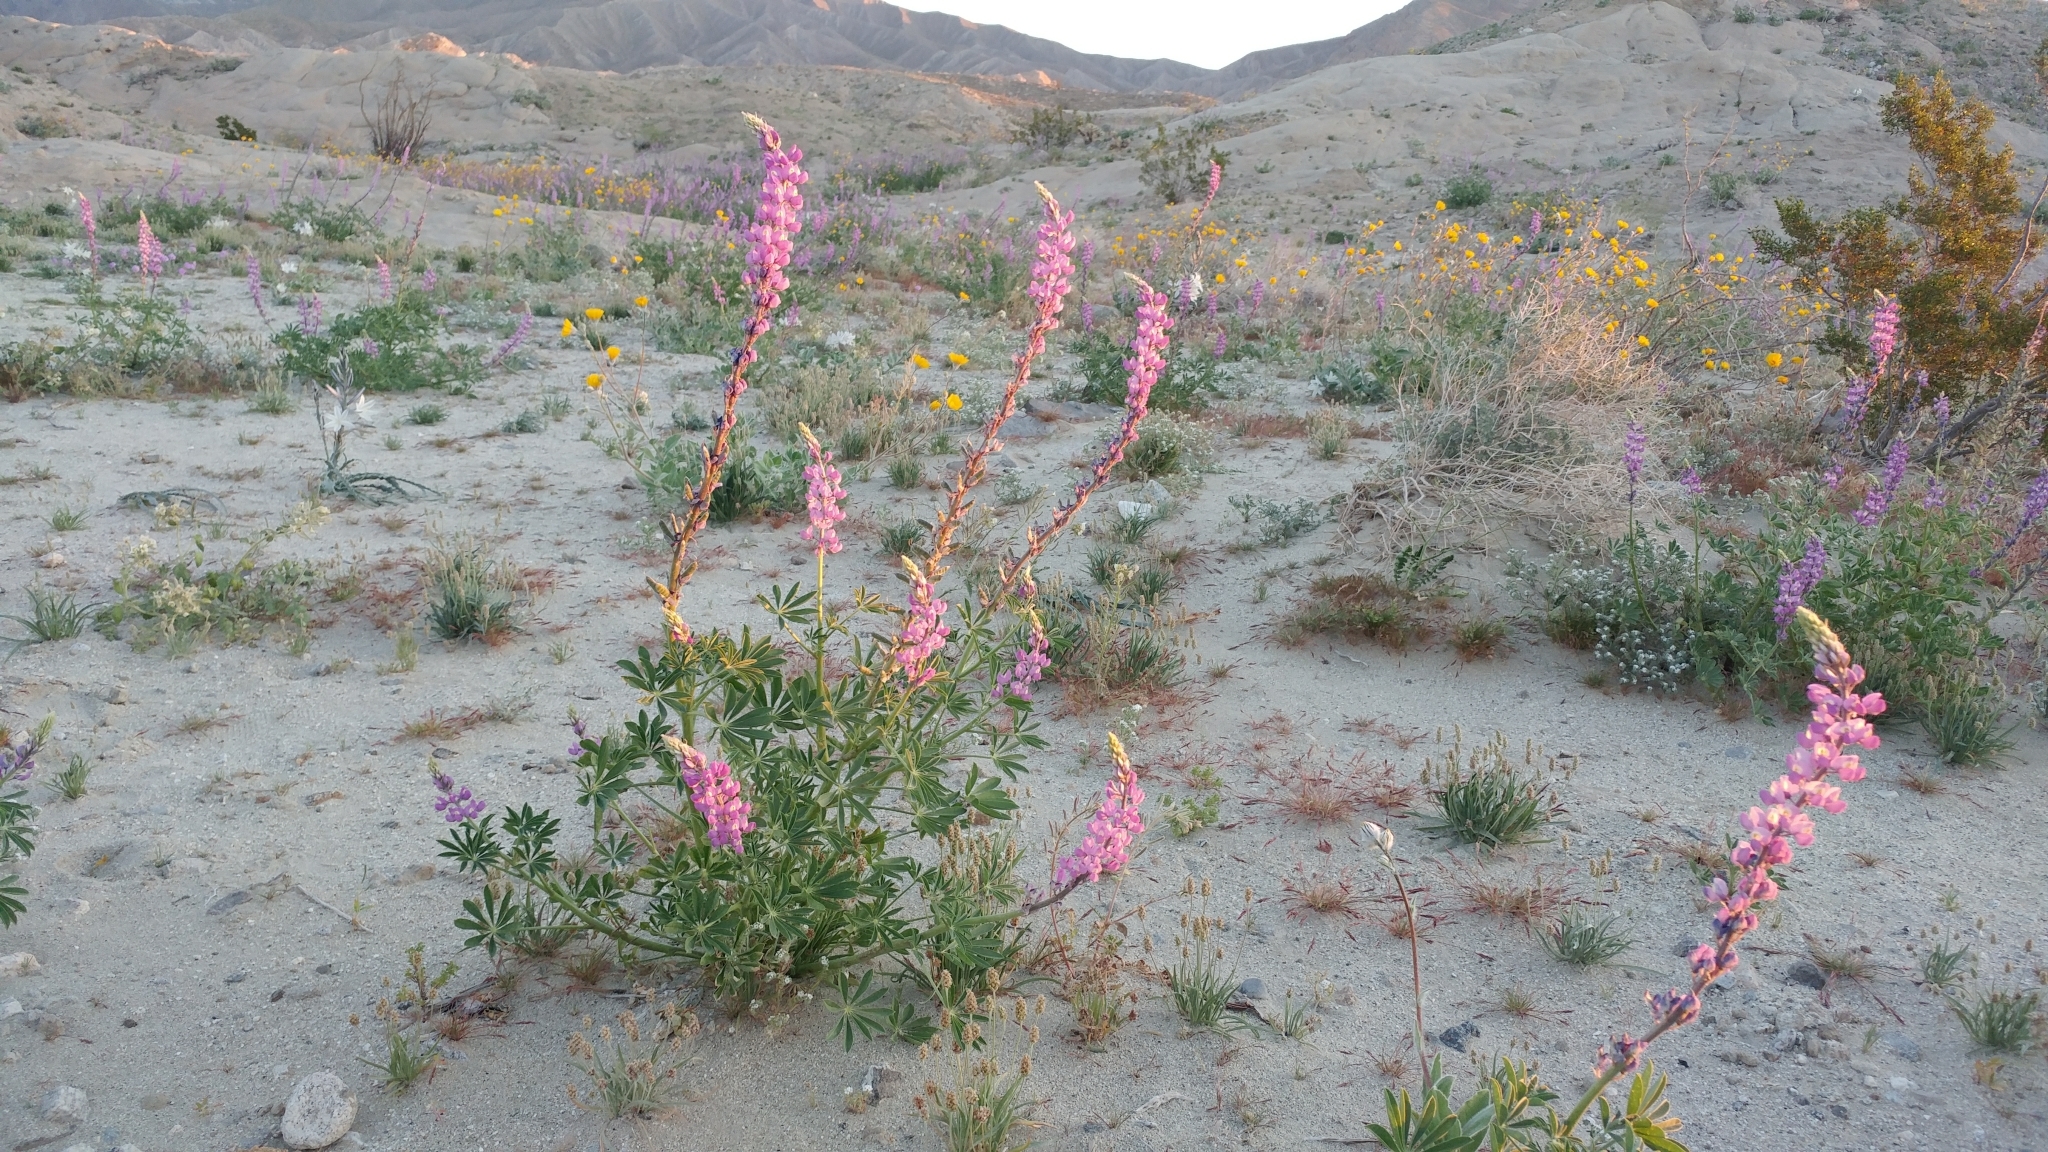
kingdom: Plantae
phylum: Tracheophyta
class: Magnoliopsida
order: Fabales
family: Fabaceae
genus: Lupinus
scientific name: Lupinus arizonicus
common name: Arizona lupine
